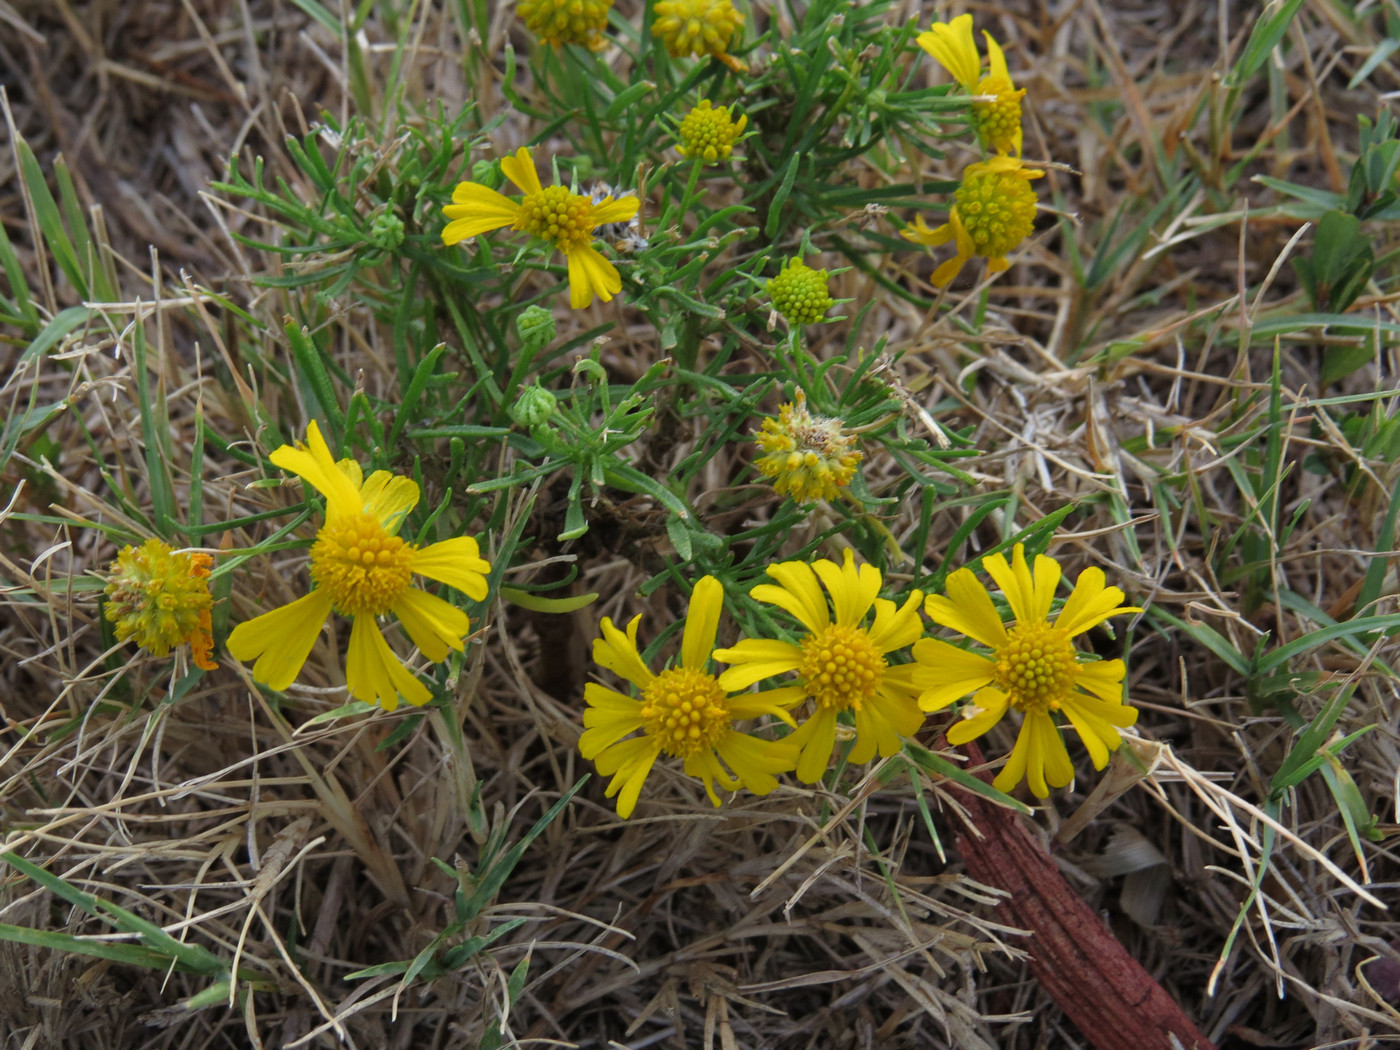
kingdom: Plantae
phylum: Tracheophyta
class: Magnoliopsida
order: Asterales
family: Asteraceae
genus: Helenium
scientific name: Helenium amarum
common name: Bitter sneezeweed
